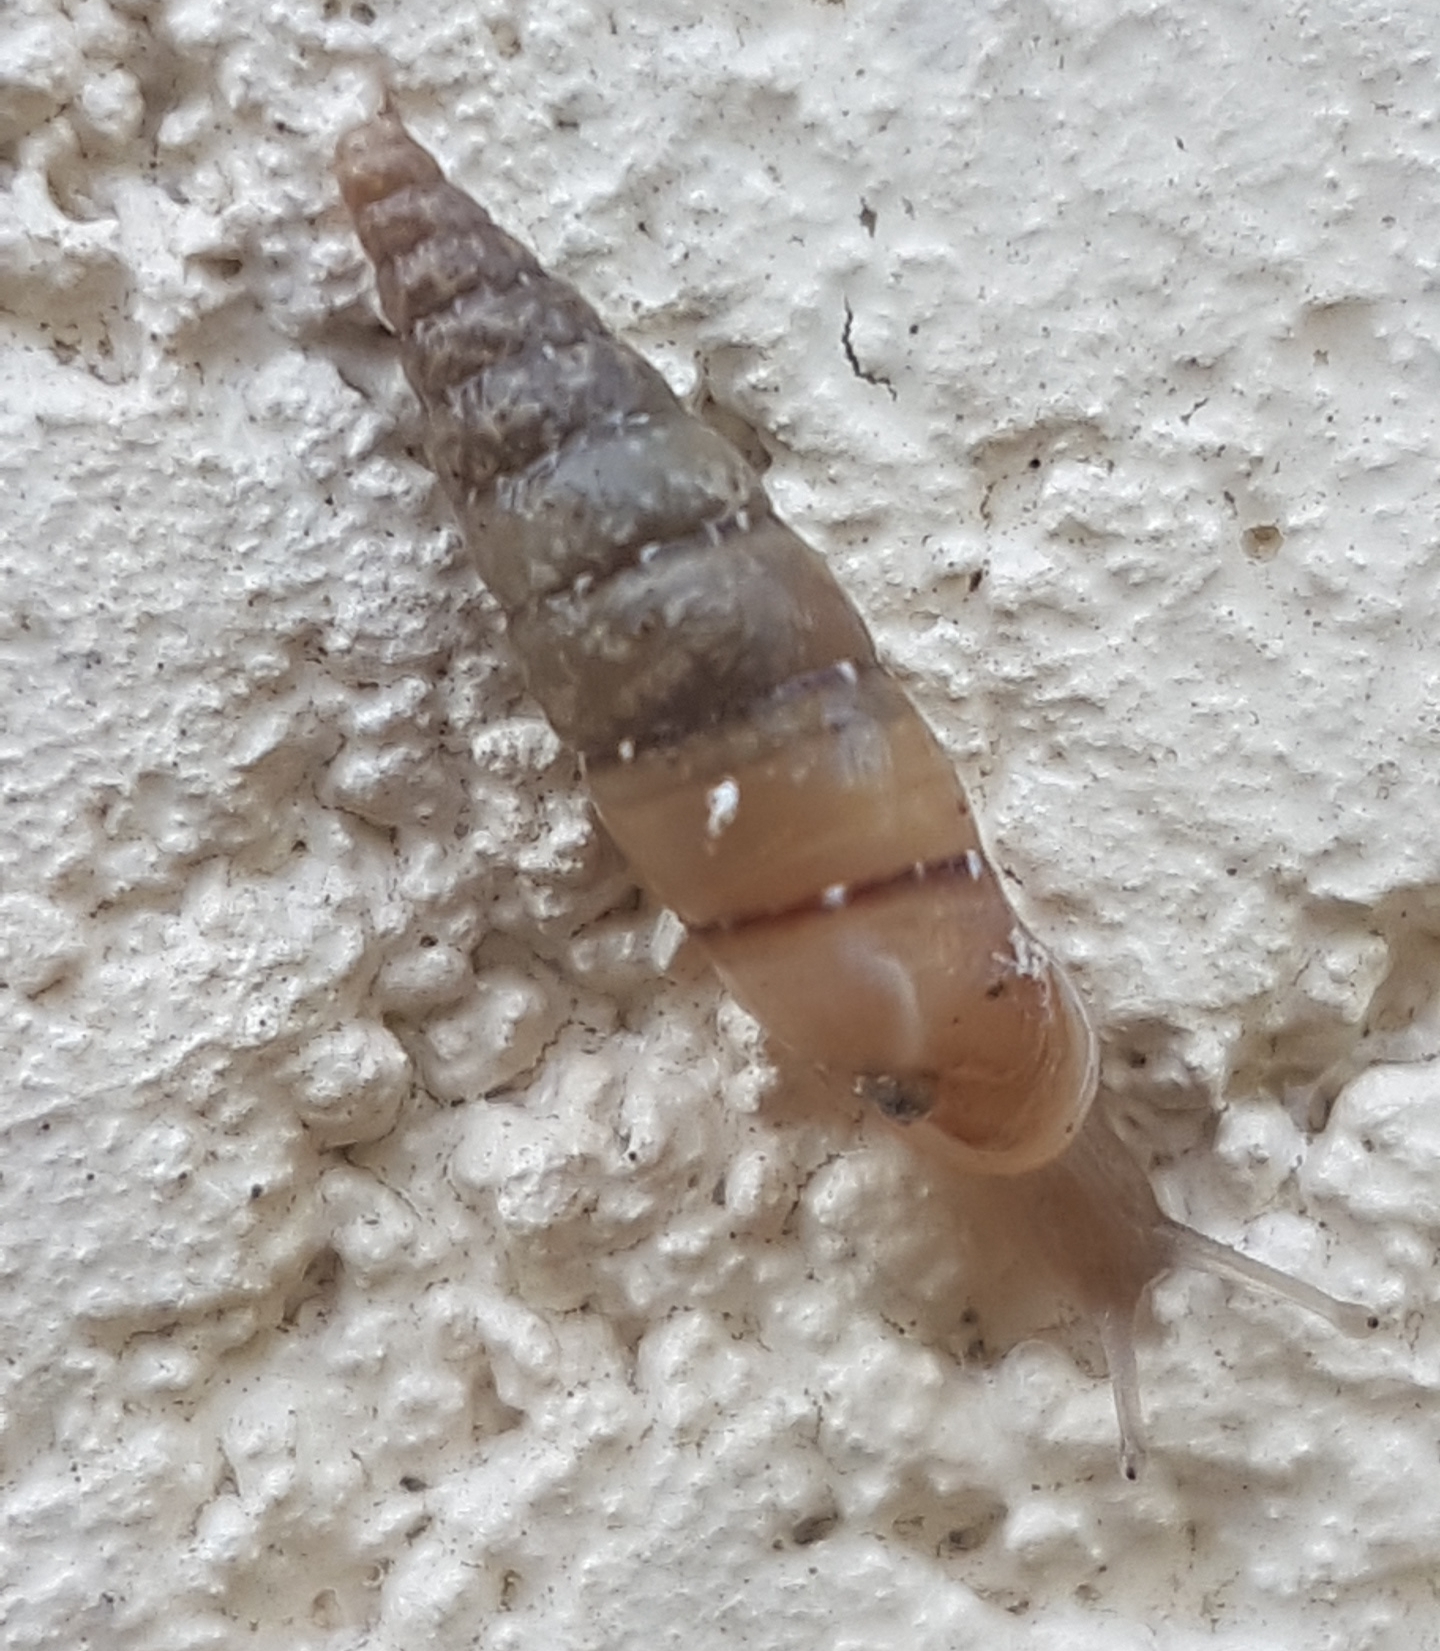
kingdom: Animalia
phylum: Mollusca
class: Gastropoda
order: Stylommatophora
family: Clausiliidae
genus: Papillifera
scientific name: Papillifera papillaris
